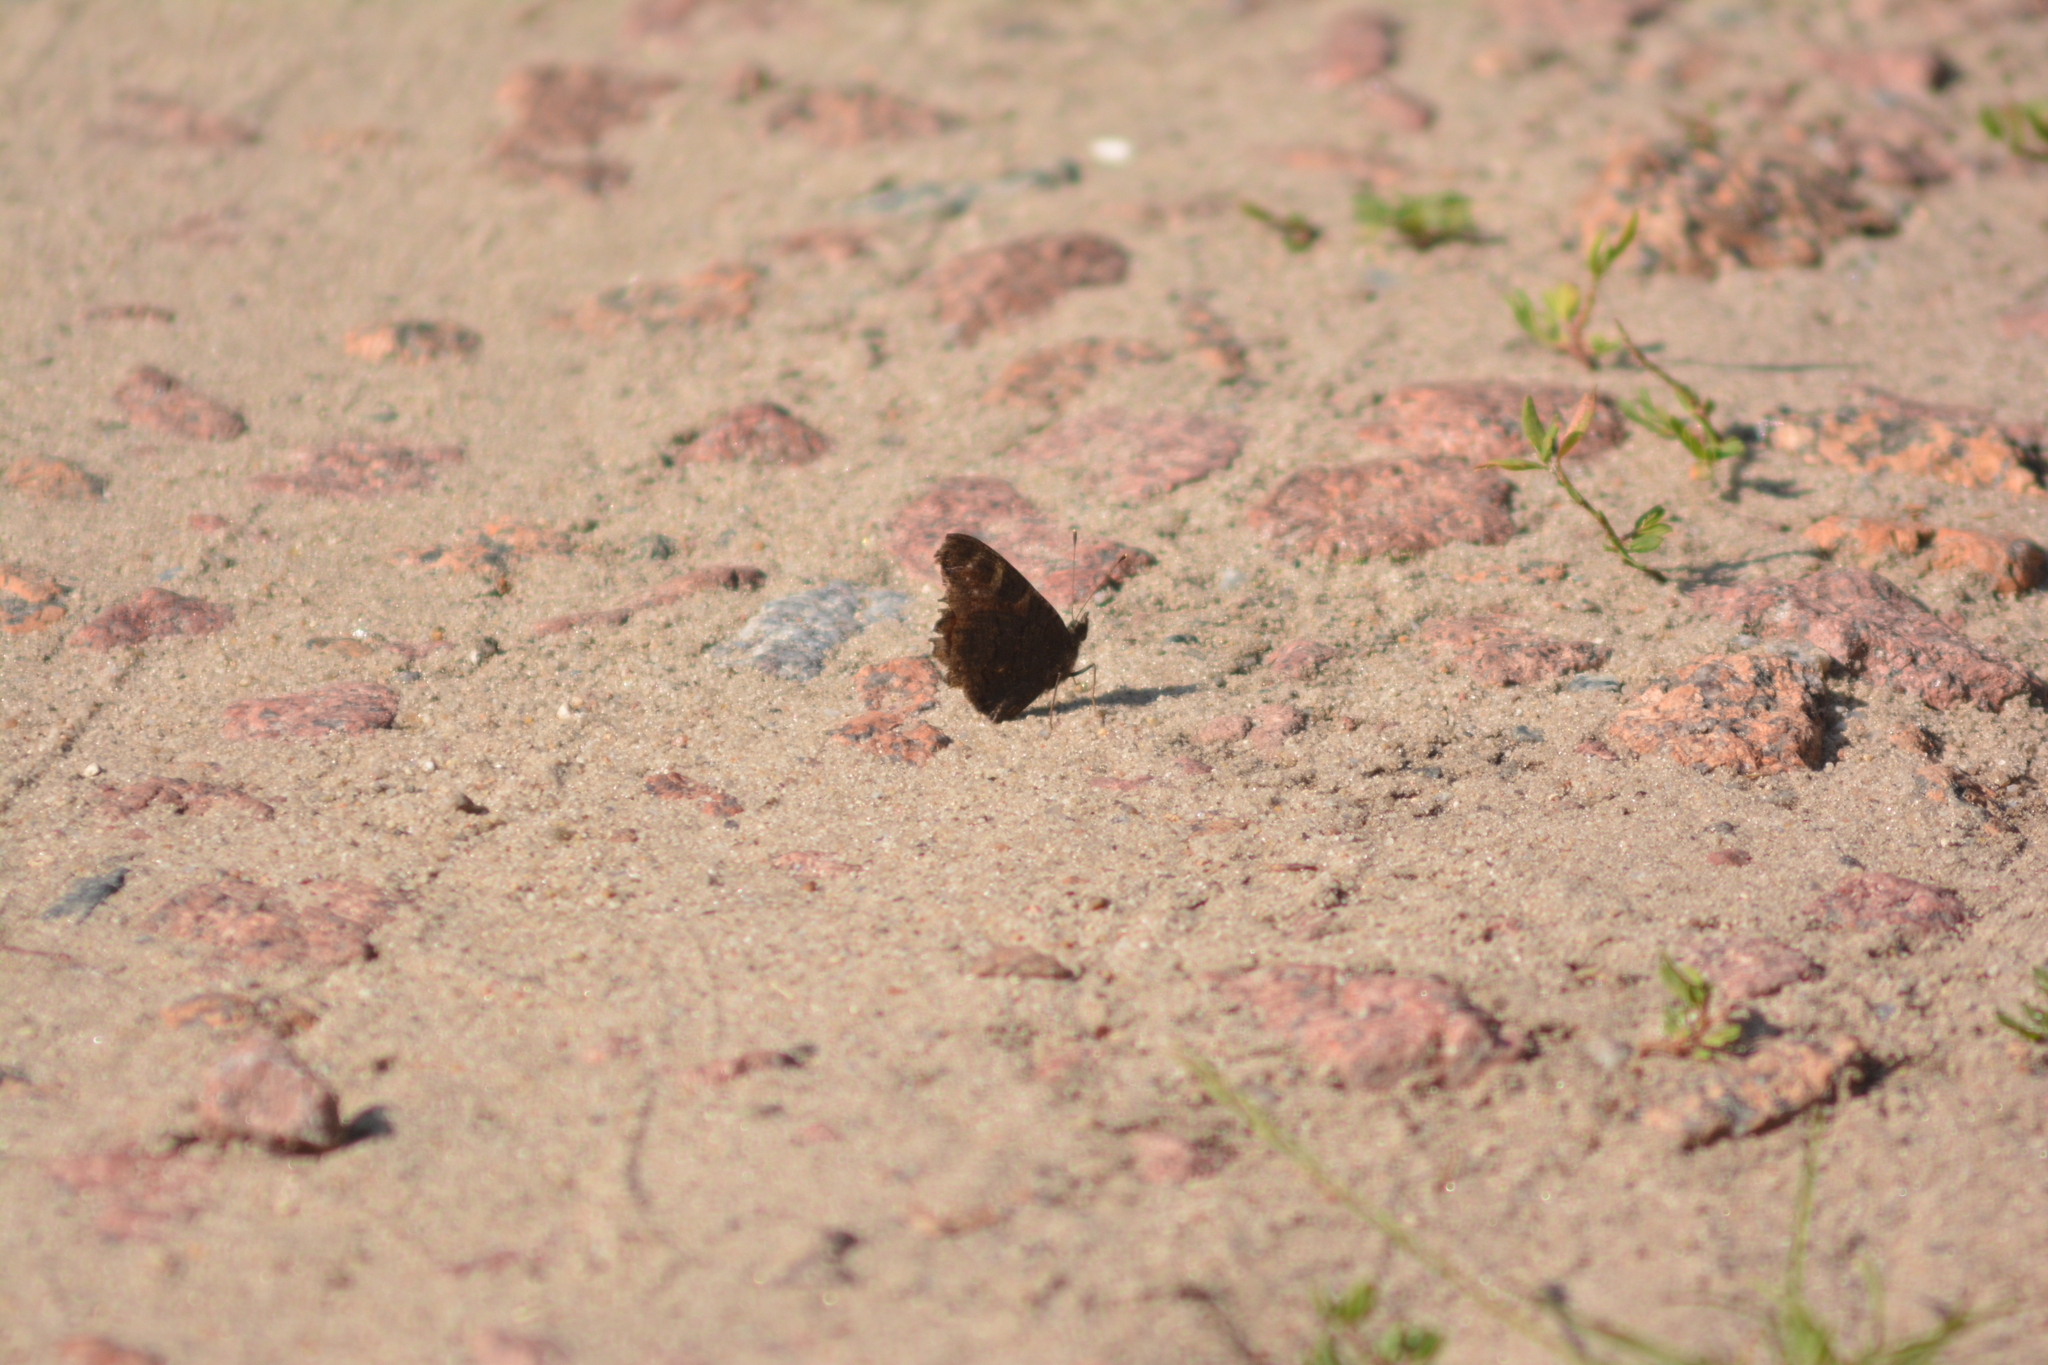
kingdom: Animalia
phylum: Arthropoda
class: Insecta
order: Lepidoptera
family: Nymphalidae
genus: Aglais
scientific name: Aglais io
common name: Peacock
